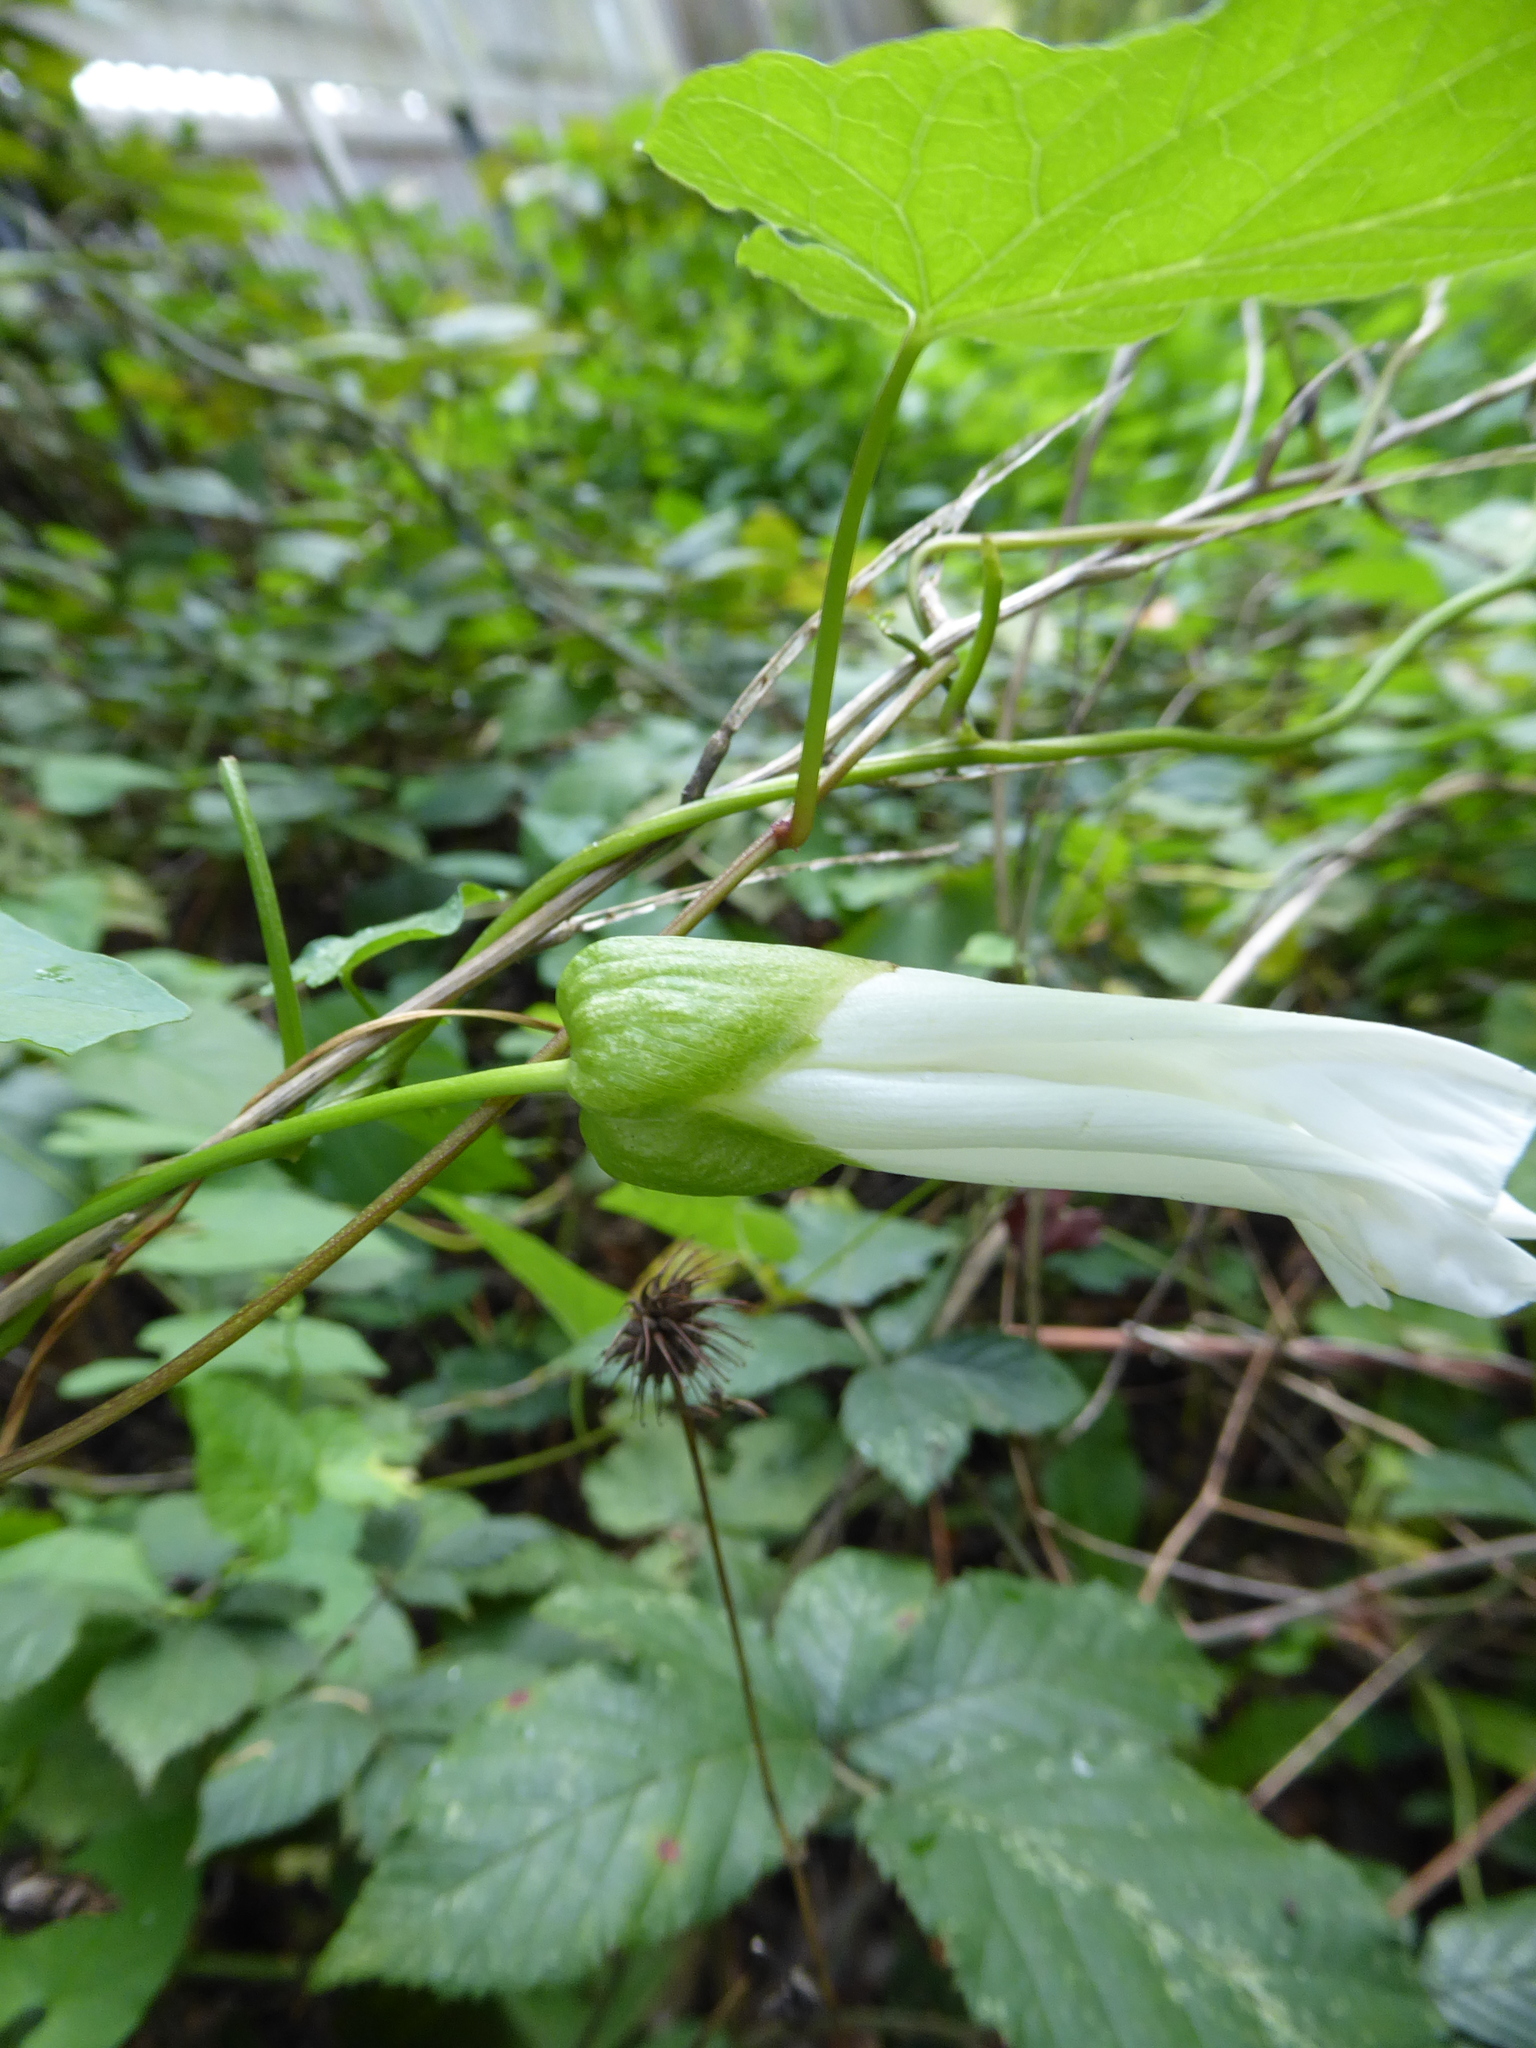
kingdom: Plantae
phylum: Tracheophyta
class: Magnoliopsida
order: Solanales
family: Convolvulaceae
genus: Calystegia
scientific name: Calystegia silvatica
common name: Large bindweed
